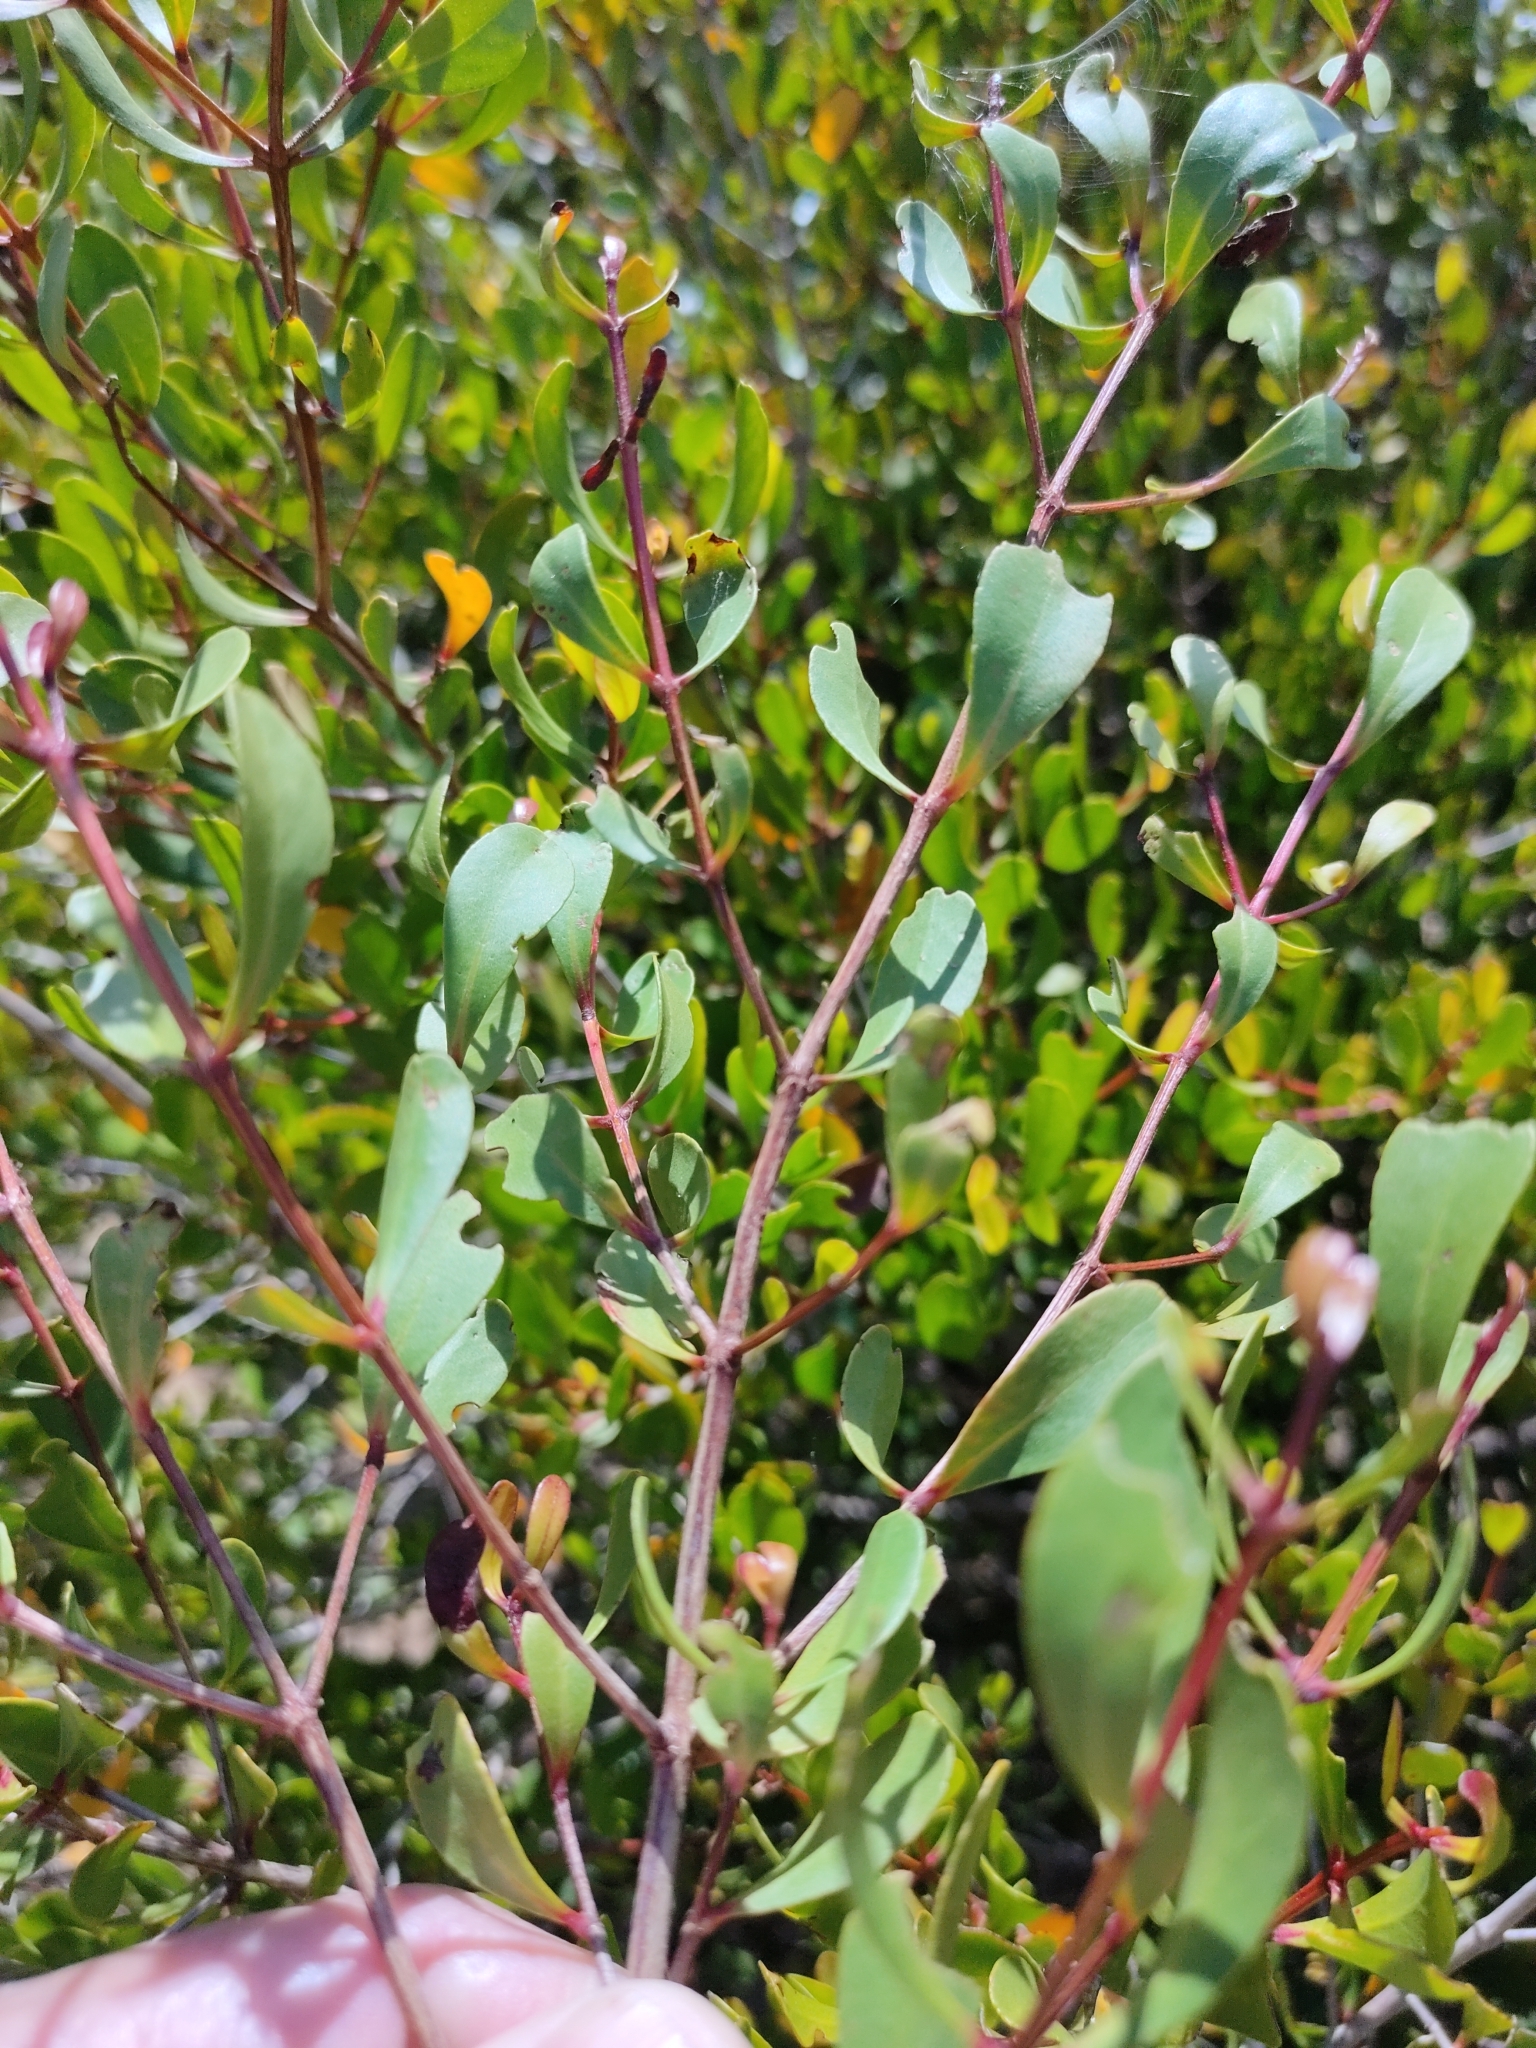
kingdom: Plantae
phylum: Tracheophyta
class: Magnoliopsida
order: Myrtales
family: Myrtaceae
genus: Osbornia
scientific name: Osbornia octodonta
